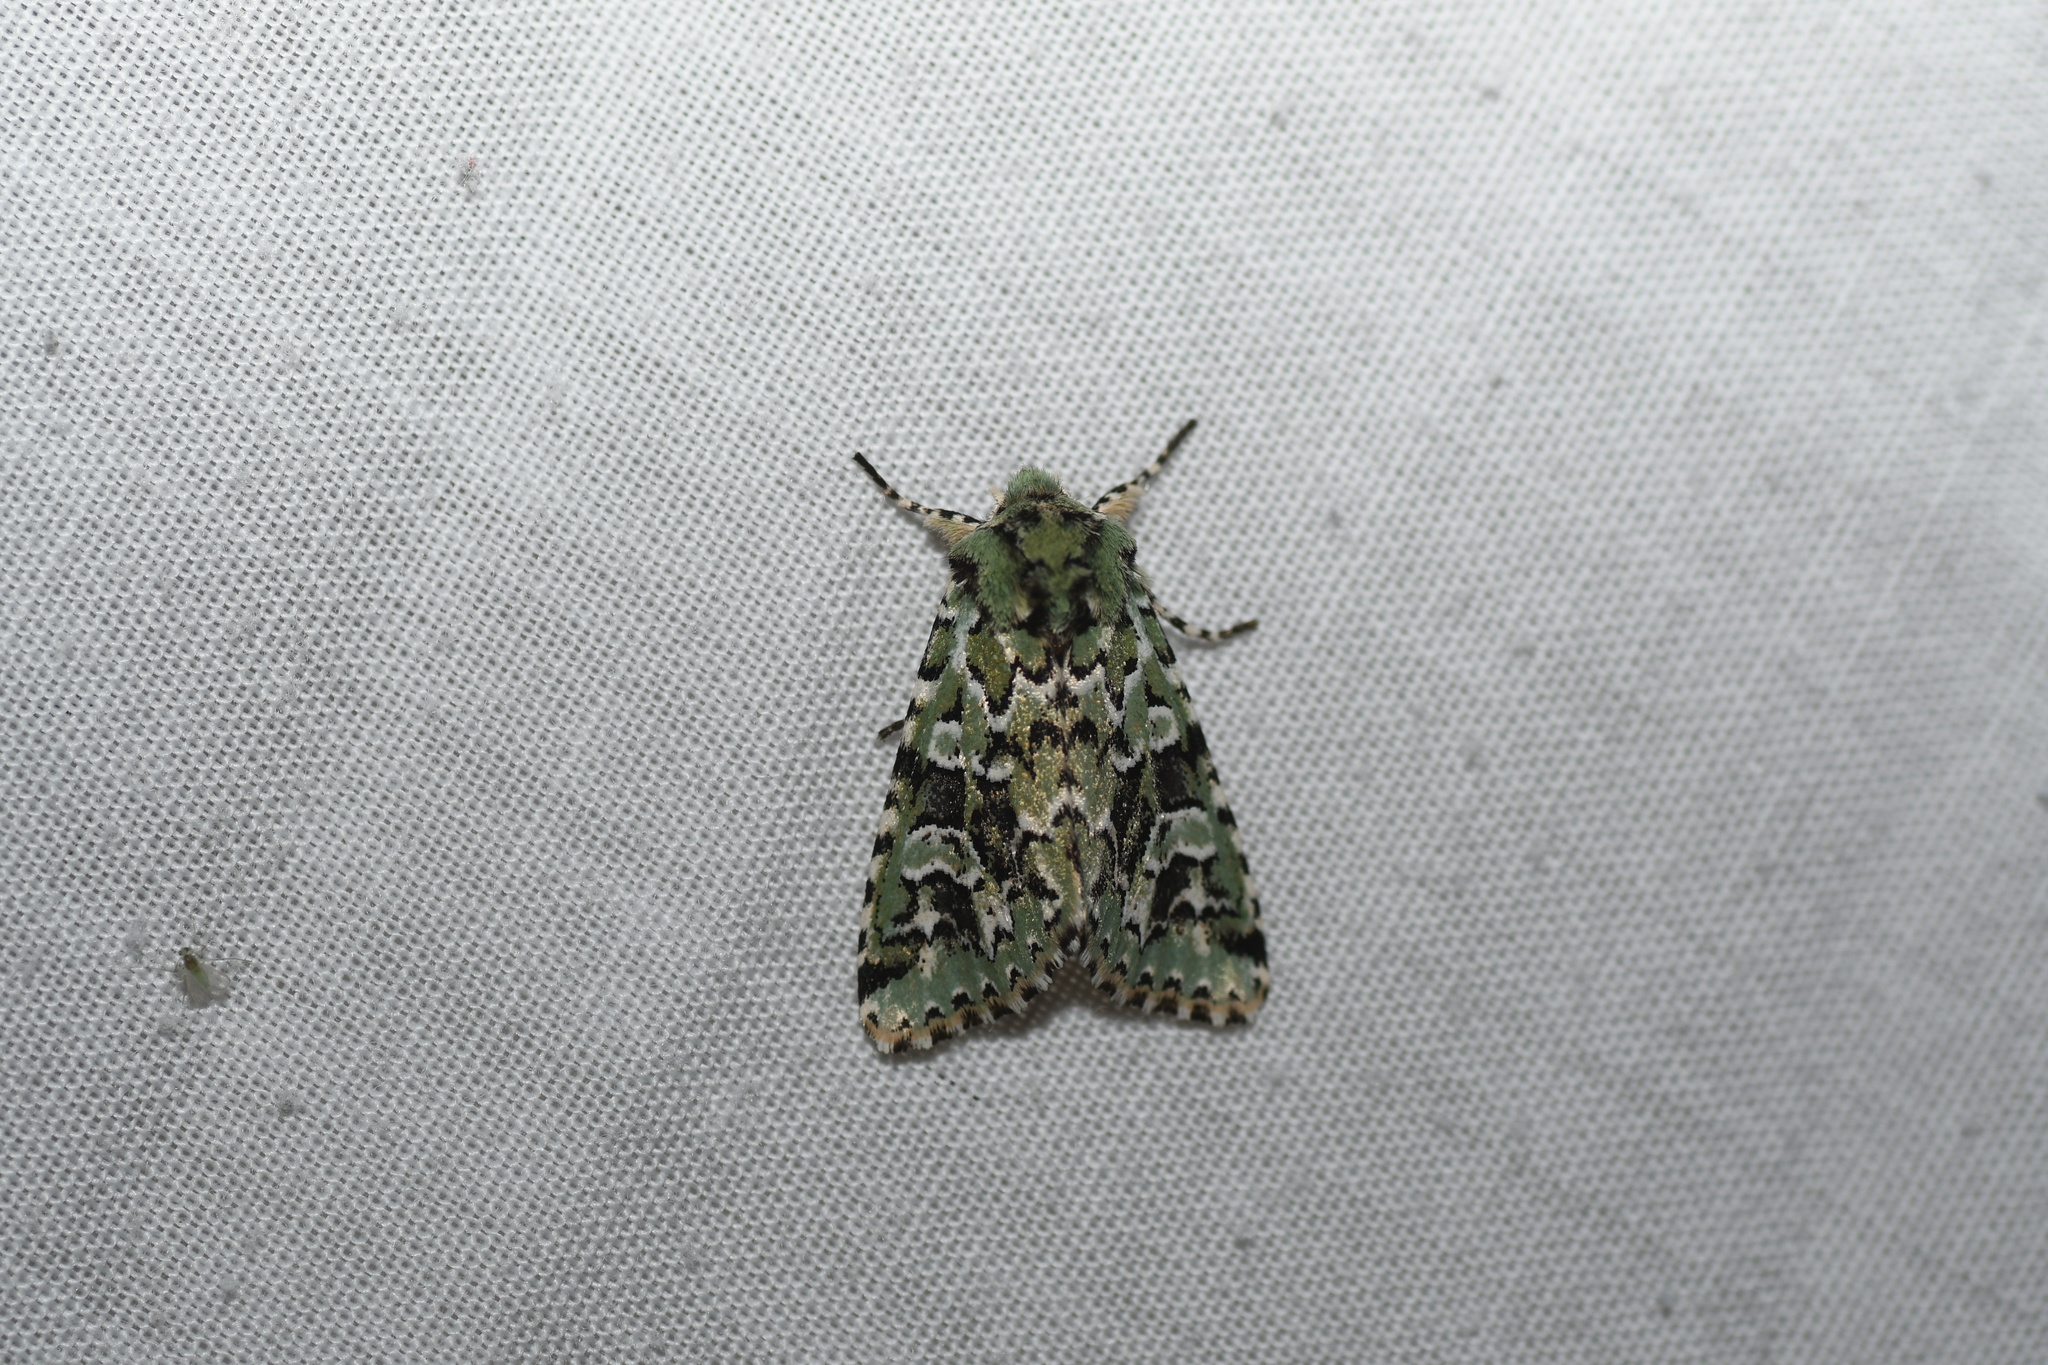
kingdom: Animalia
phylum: Arthropoda
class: Insecta
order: Lepidoptera
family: Noctuidae
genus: Feralia
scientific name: Feralia comstocki
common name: Comstock's sallow
